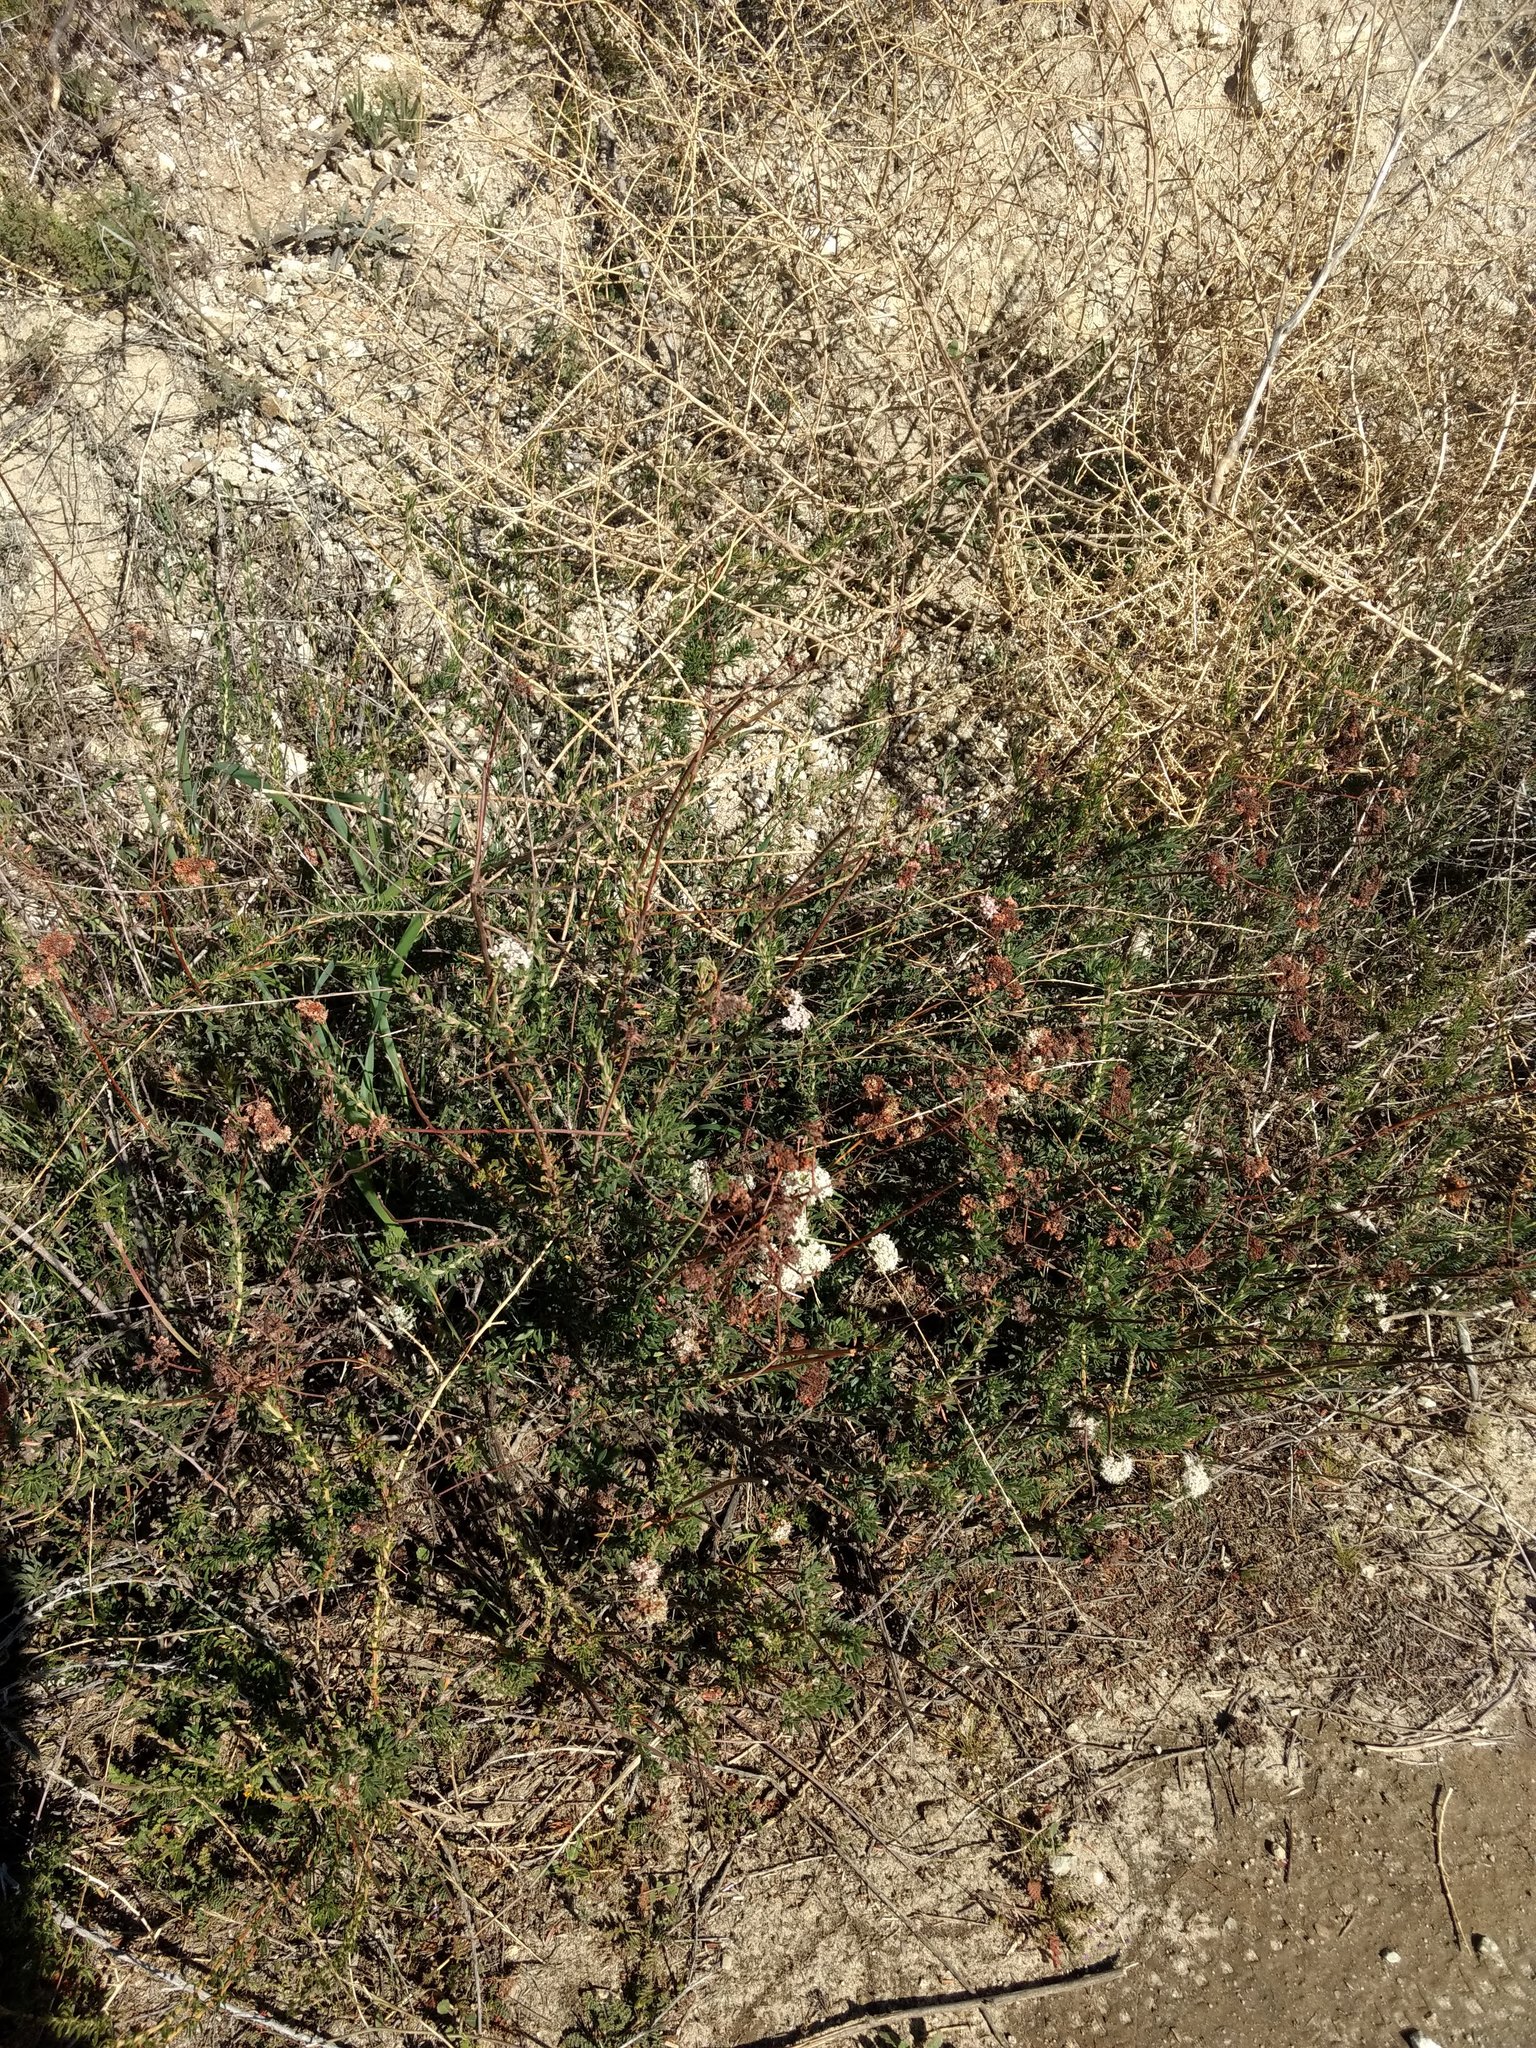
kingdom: Plantae
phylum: Tracheophyta
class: Magnoliopsida
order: Caryophyllales
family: Polygonaceae
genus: Eriogonum
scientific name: Eriogonum fasciculatum
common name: California wild buckwheat
